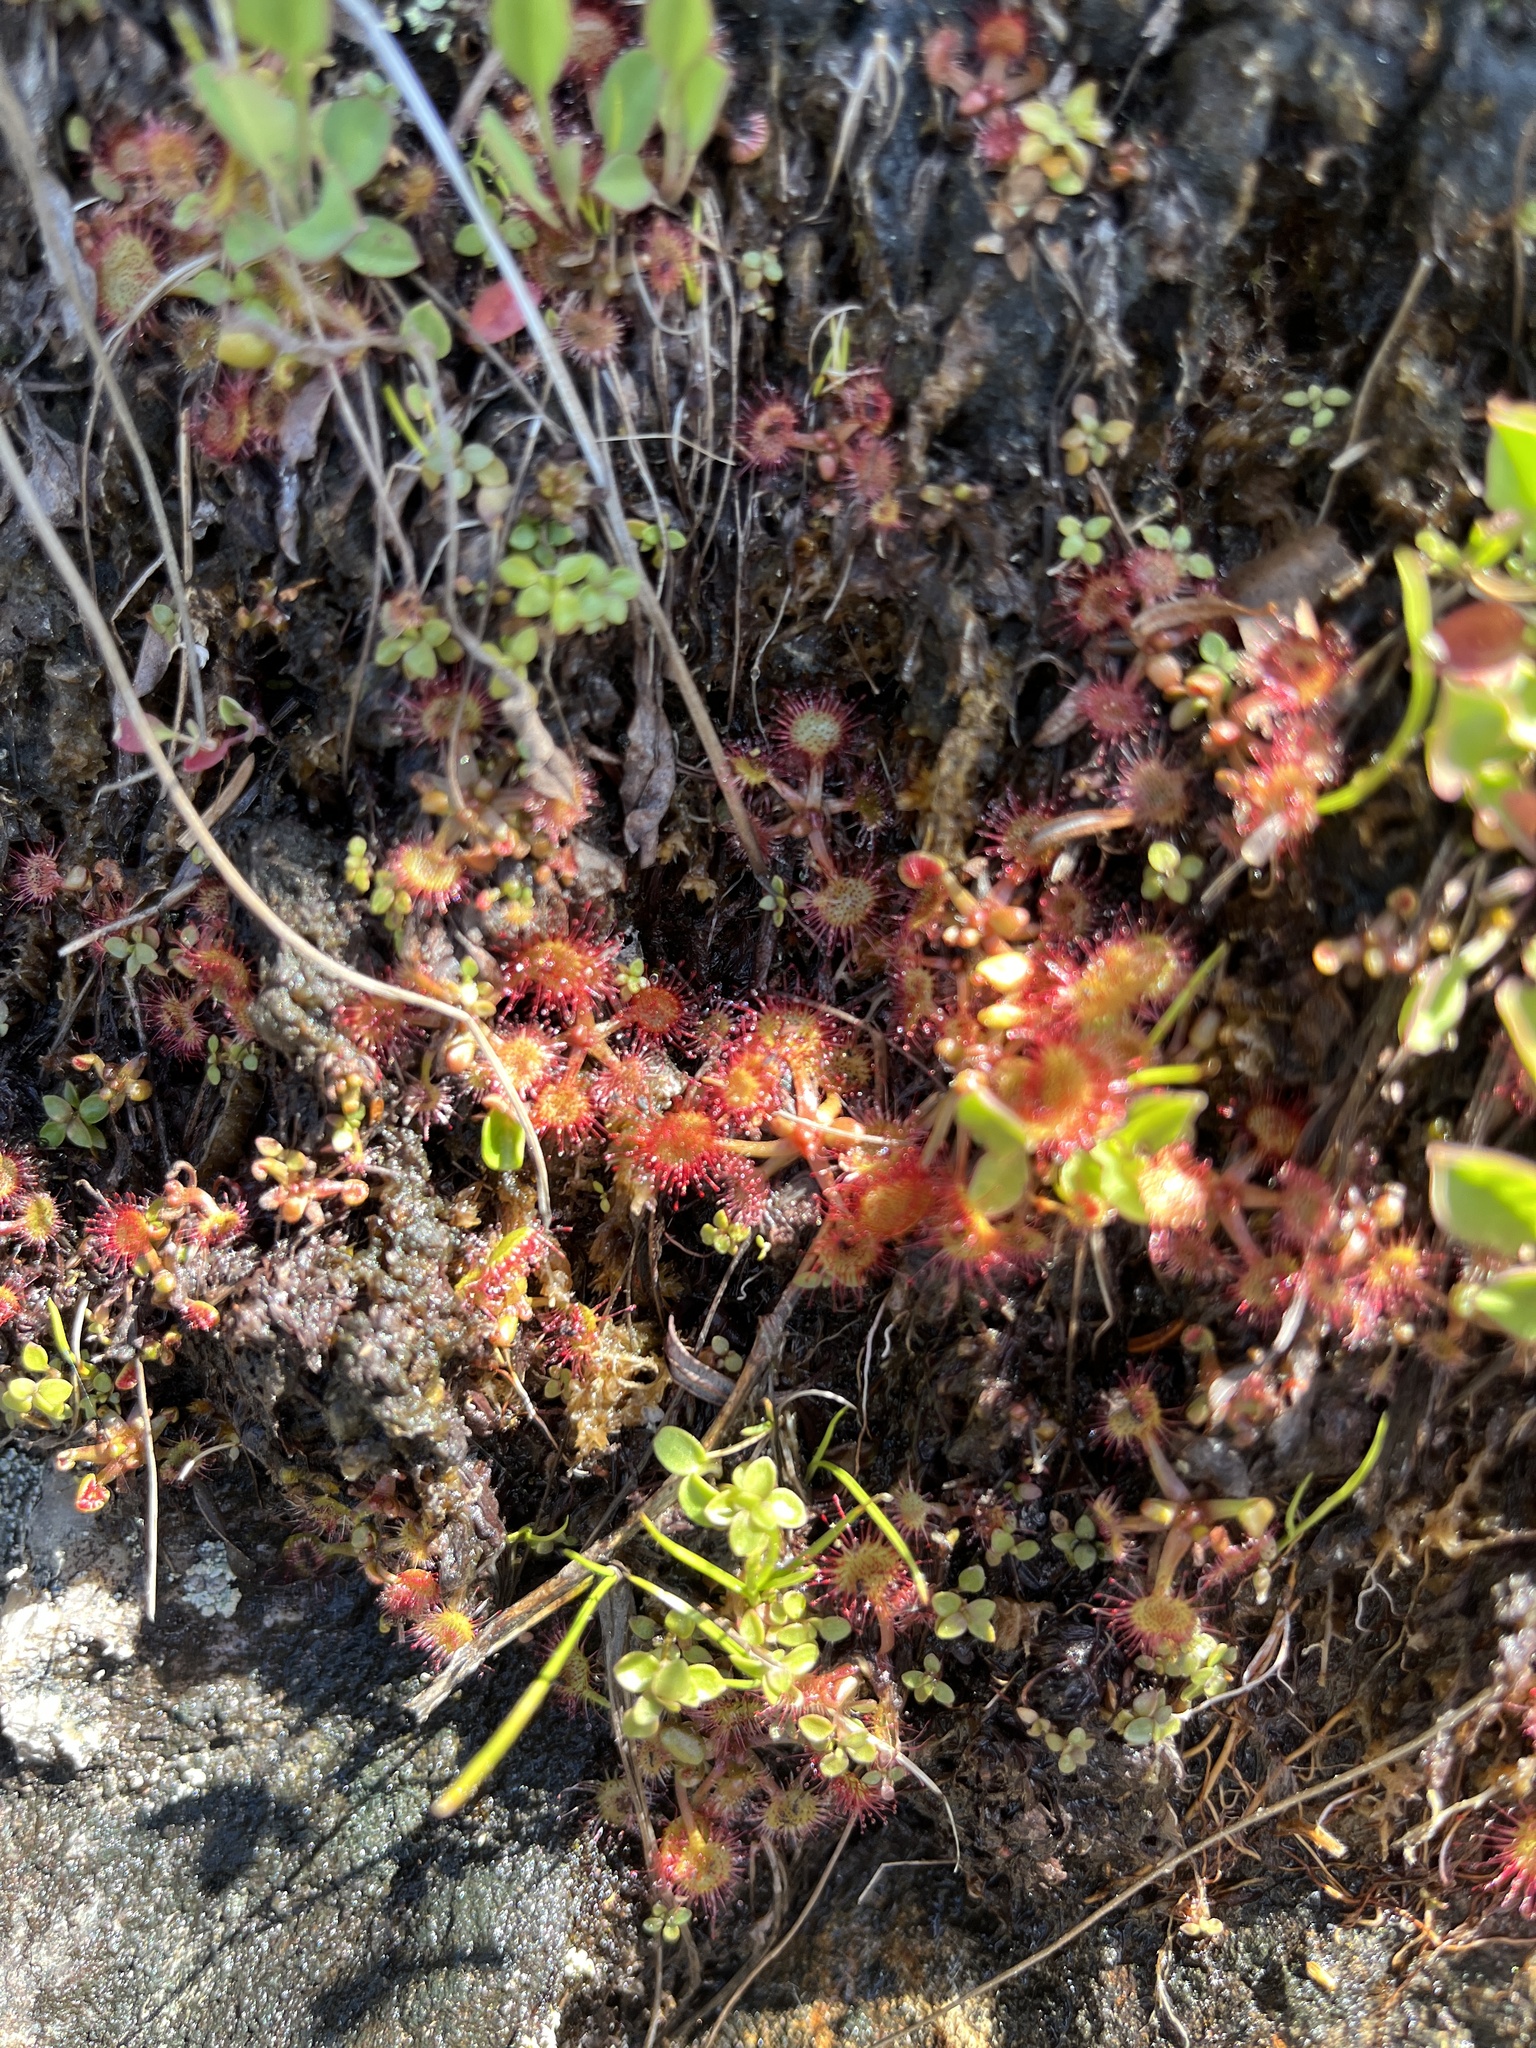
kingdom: Plantae
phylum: Tracheophyta
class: Magnoliopsida
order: Caryophyllales
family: Droseraceae
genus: Drosera
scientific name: Drosera rotundifolia
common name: Round-leaved sundew
